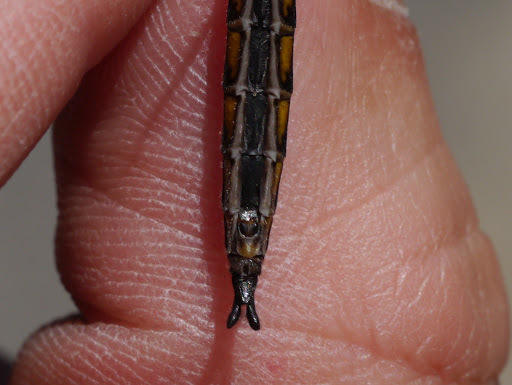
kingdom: Animalia
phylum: Arthropoda
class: Insecta
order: Odonata
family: Corduliidae
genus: Epitheca
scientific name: Epitheca cynosura
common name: Common baskettail
